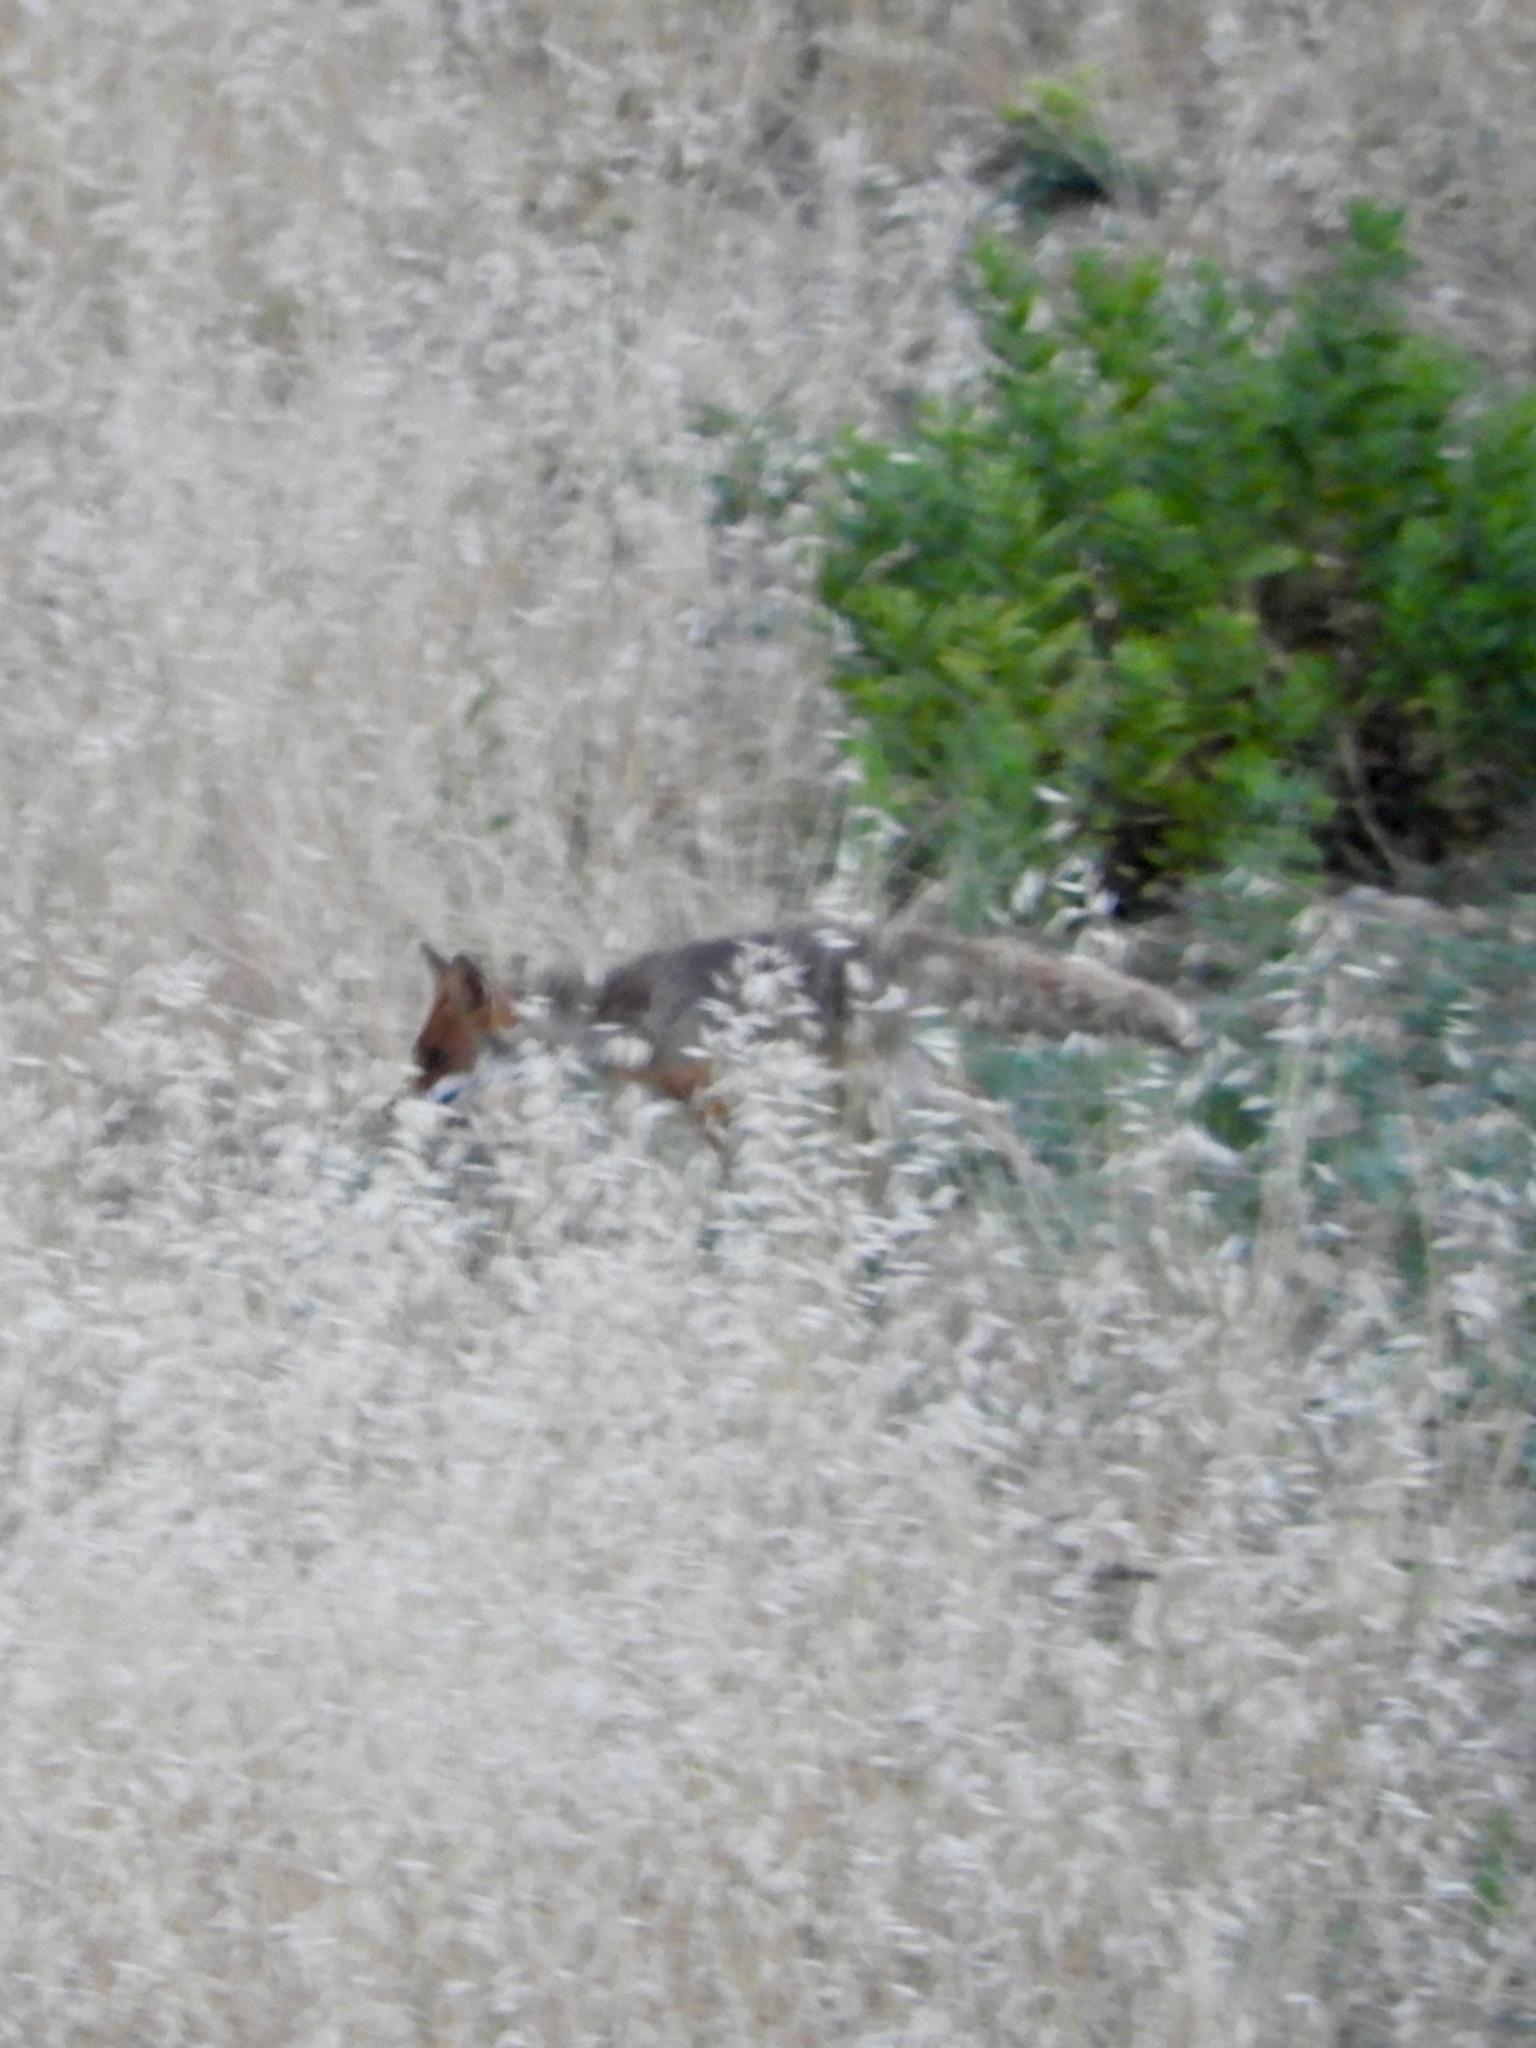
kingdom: Animalia
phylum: Chordata
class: Mammalia
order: Carnivora
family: Canidae
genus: Vulpes
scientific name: Vulpes vulpes
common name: Red fox
